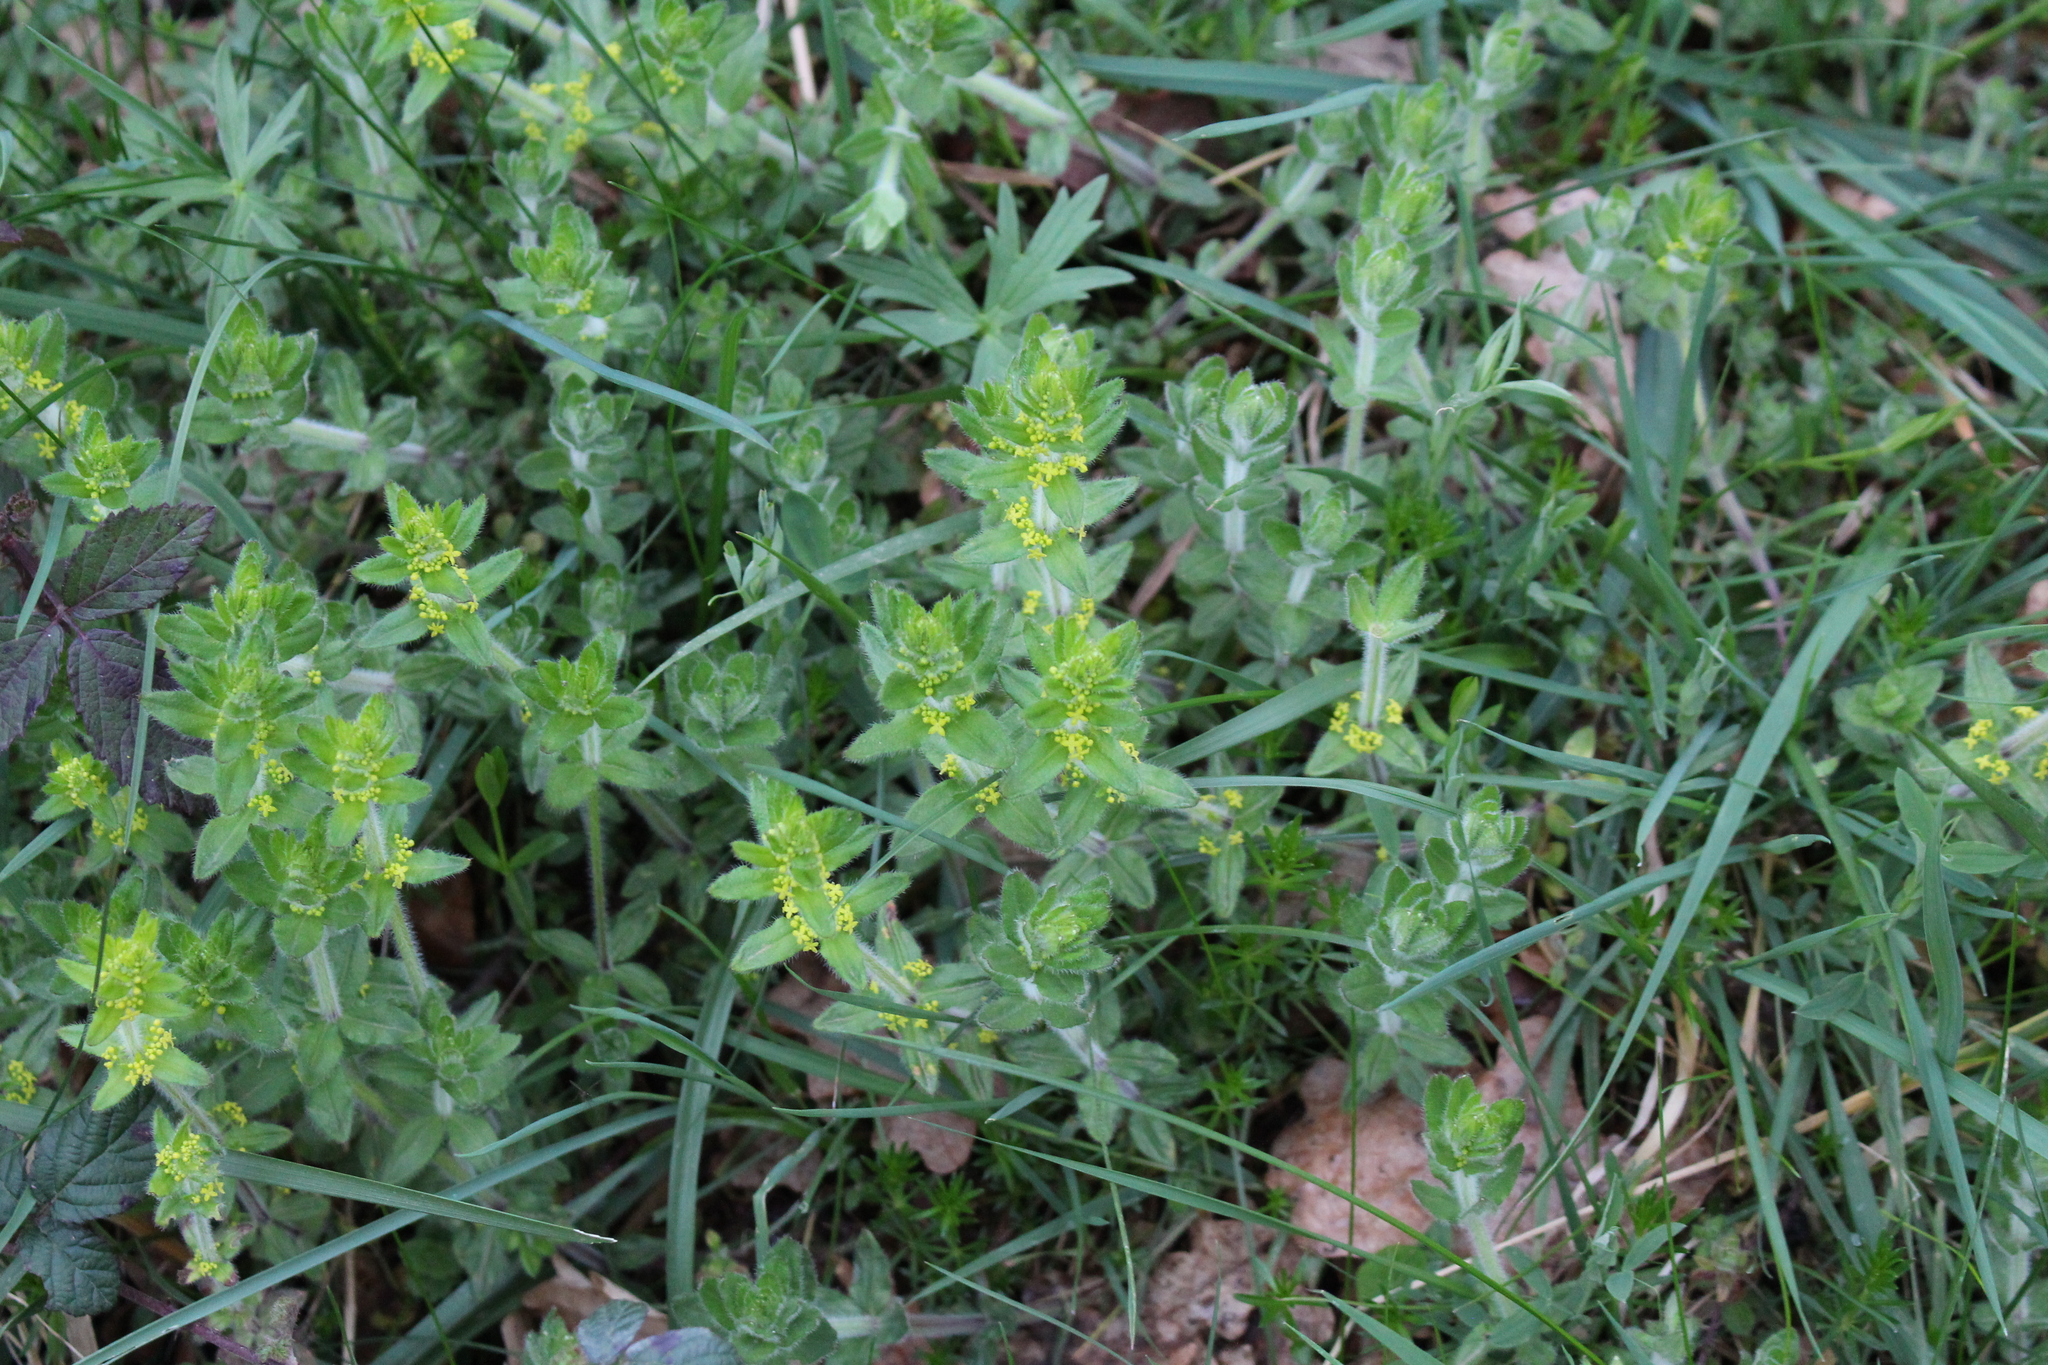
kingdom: Plantae
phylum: Tracheophyta
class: Magnoliopsida
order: Gentianales
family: Rubiaceae
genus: Cruciata
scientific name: Cruciata laevipes
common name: Crosswort
